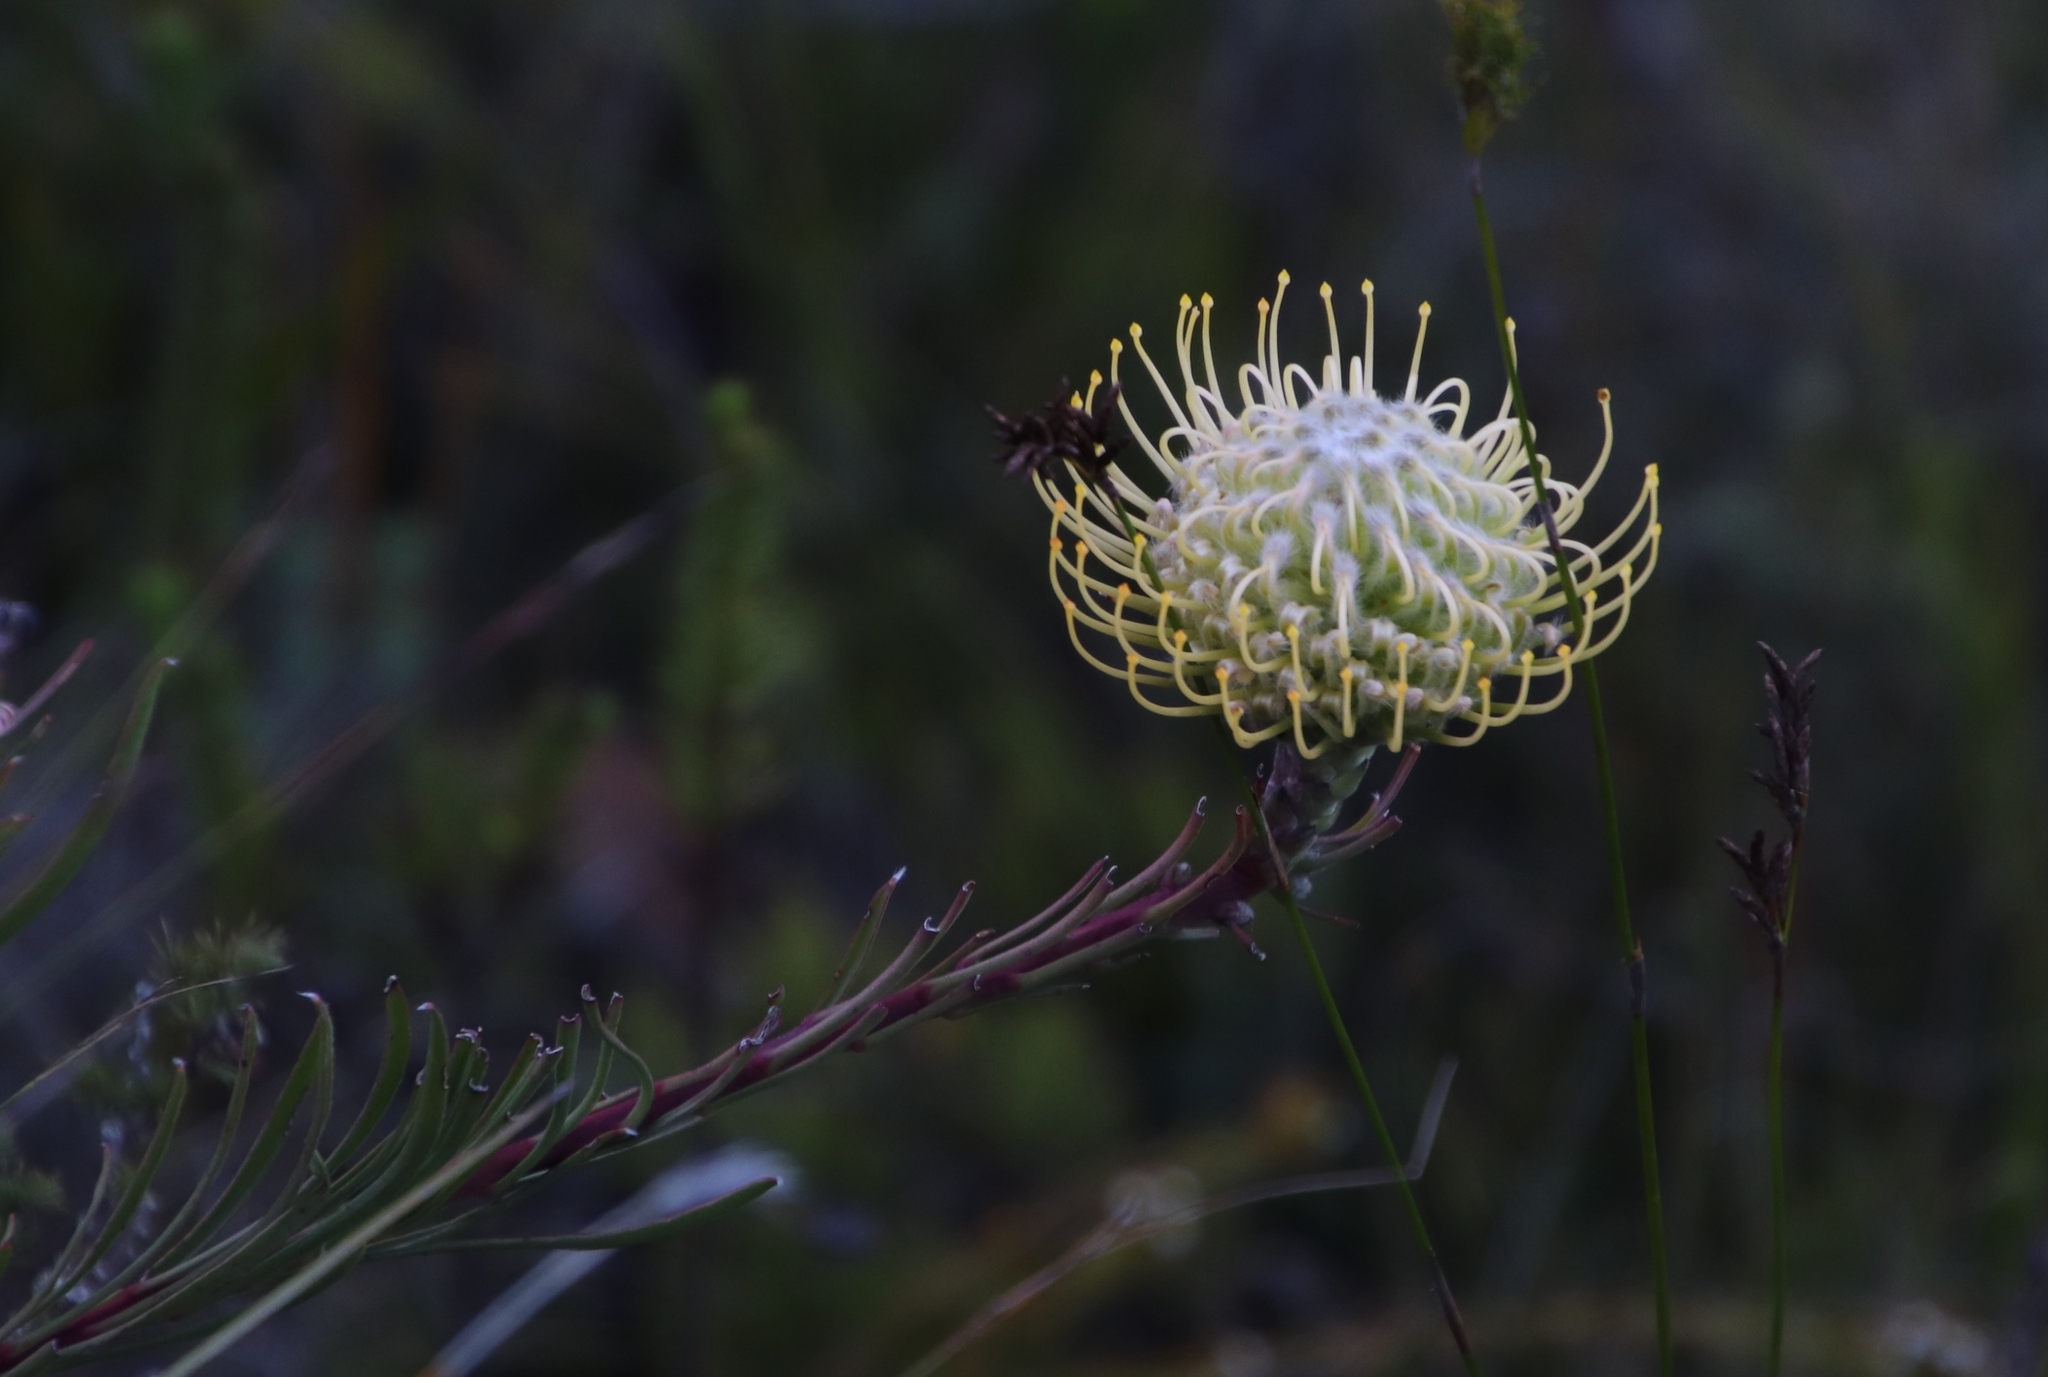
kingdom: Plantae
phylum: Tracheophyta
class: Magnoliopsida
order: Proteales
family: Proteaceae
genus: Leucospermum
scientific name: Leucospermum lineare
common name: Needle-leaf pincushion
